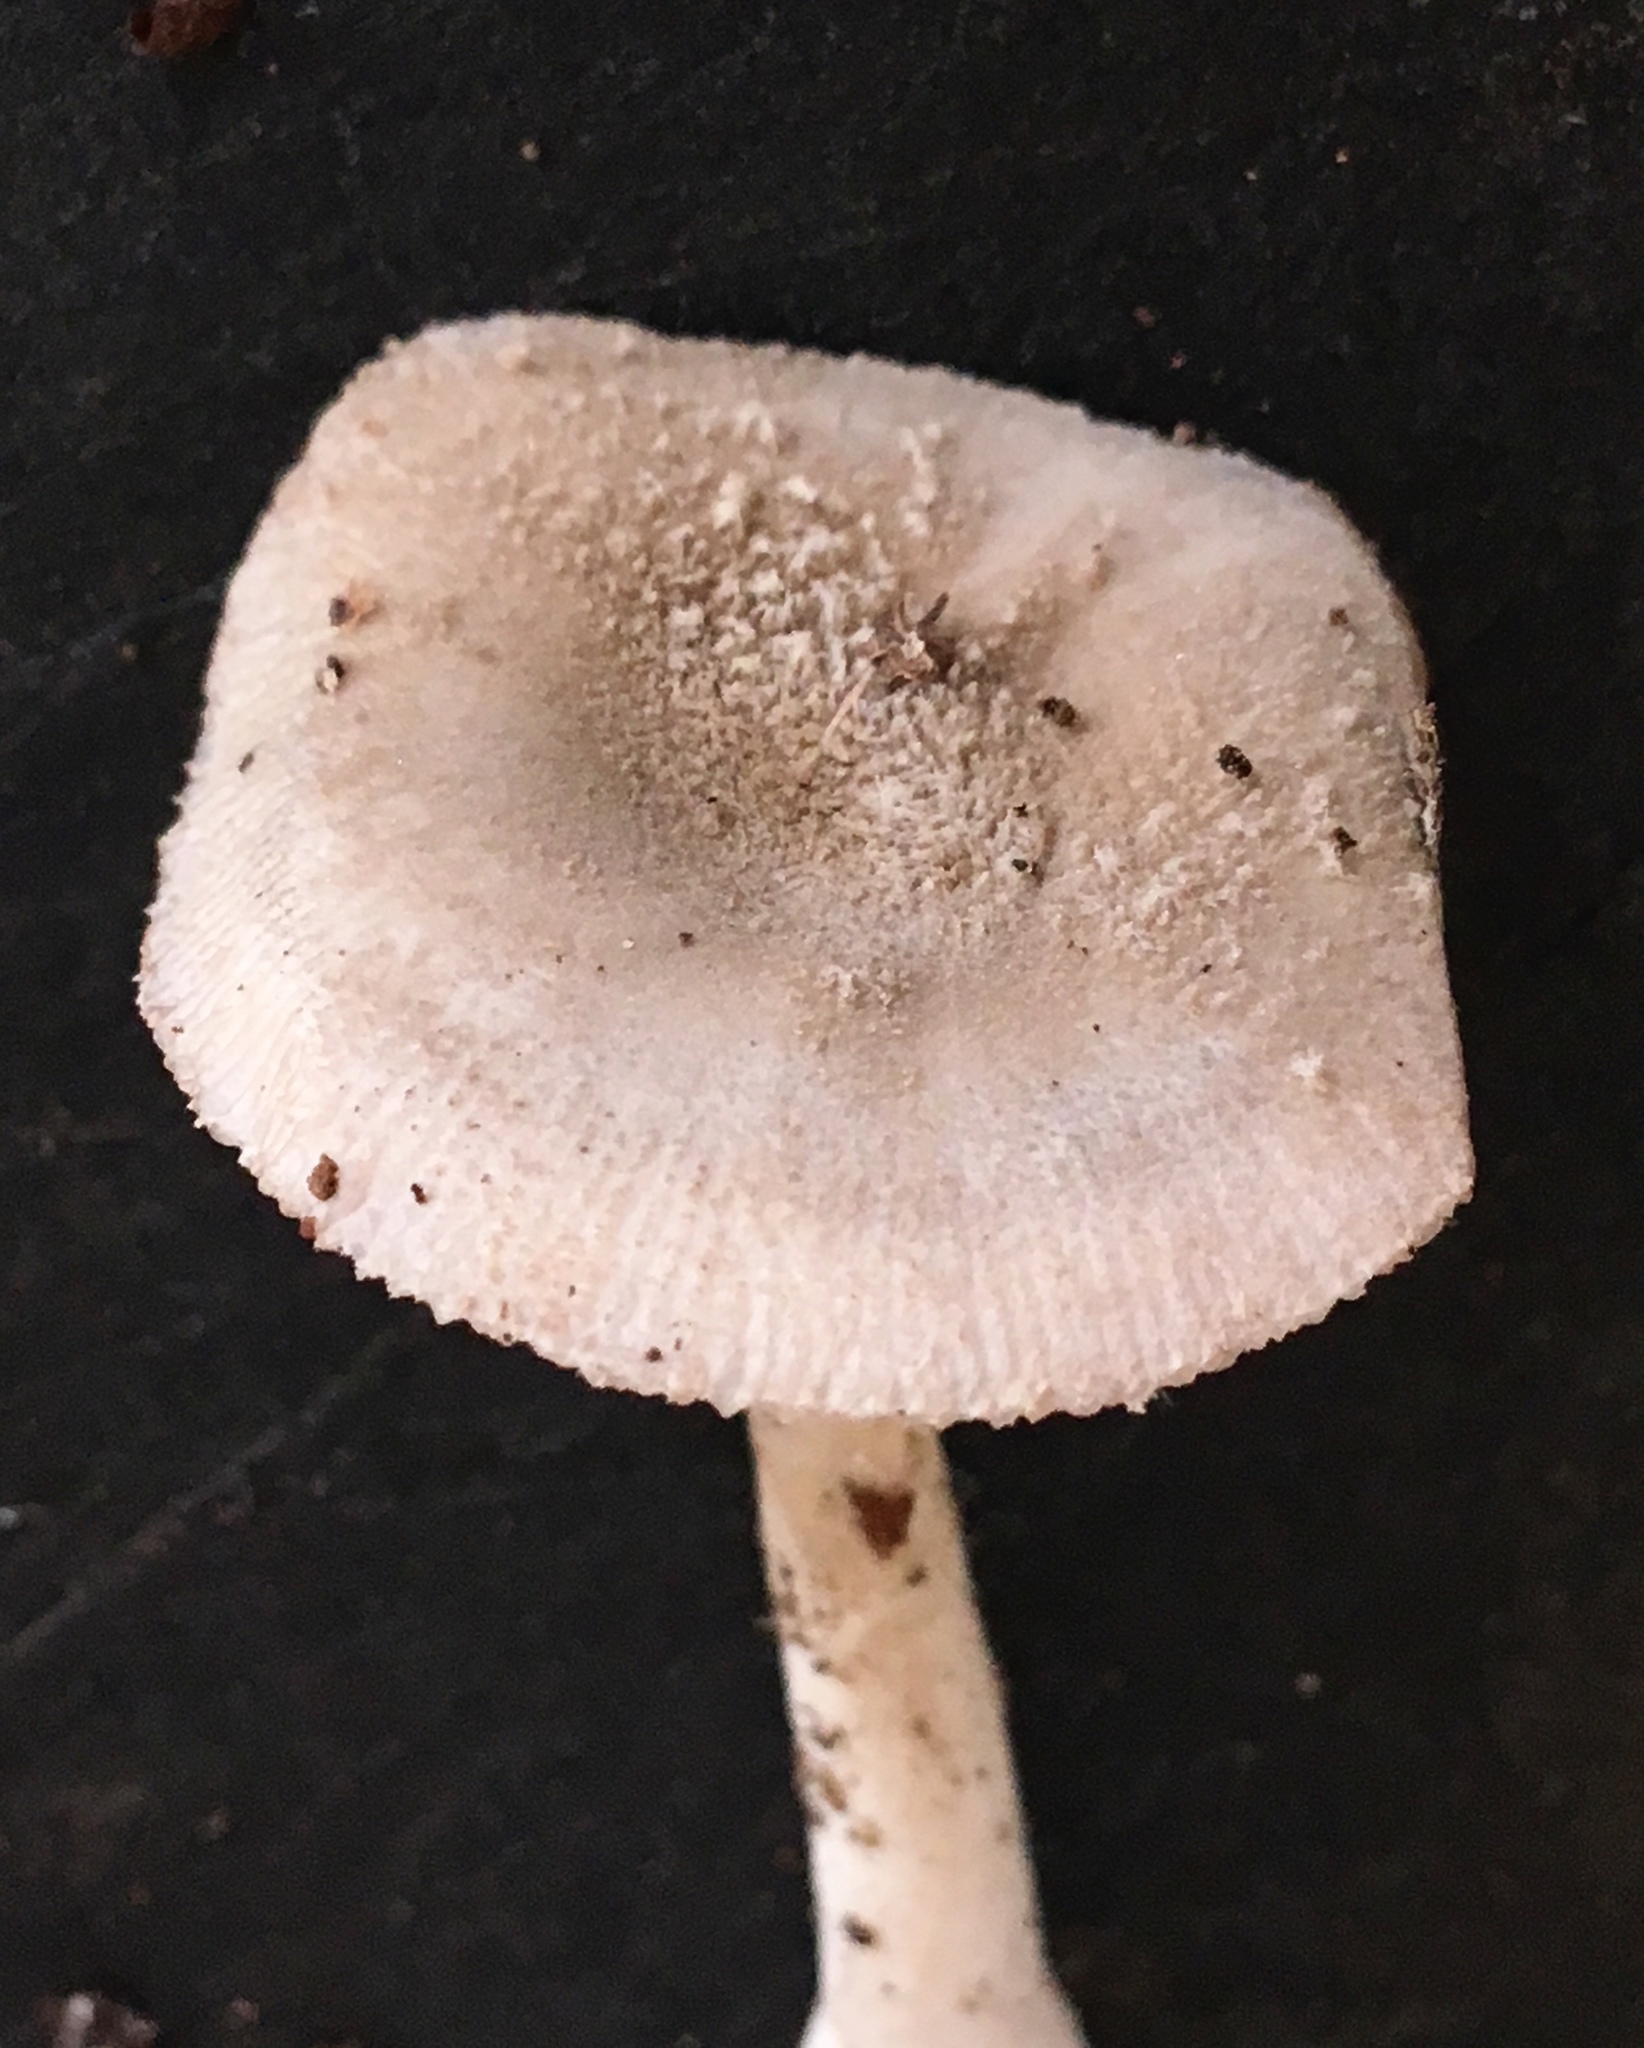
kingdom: Fungi
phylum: Basidiomycota
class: Agaricomycetes
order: Agaricales
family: Amanitaceae
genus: Amanita
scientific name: Amanita farinosa
